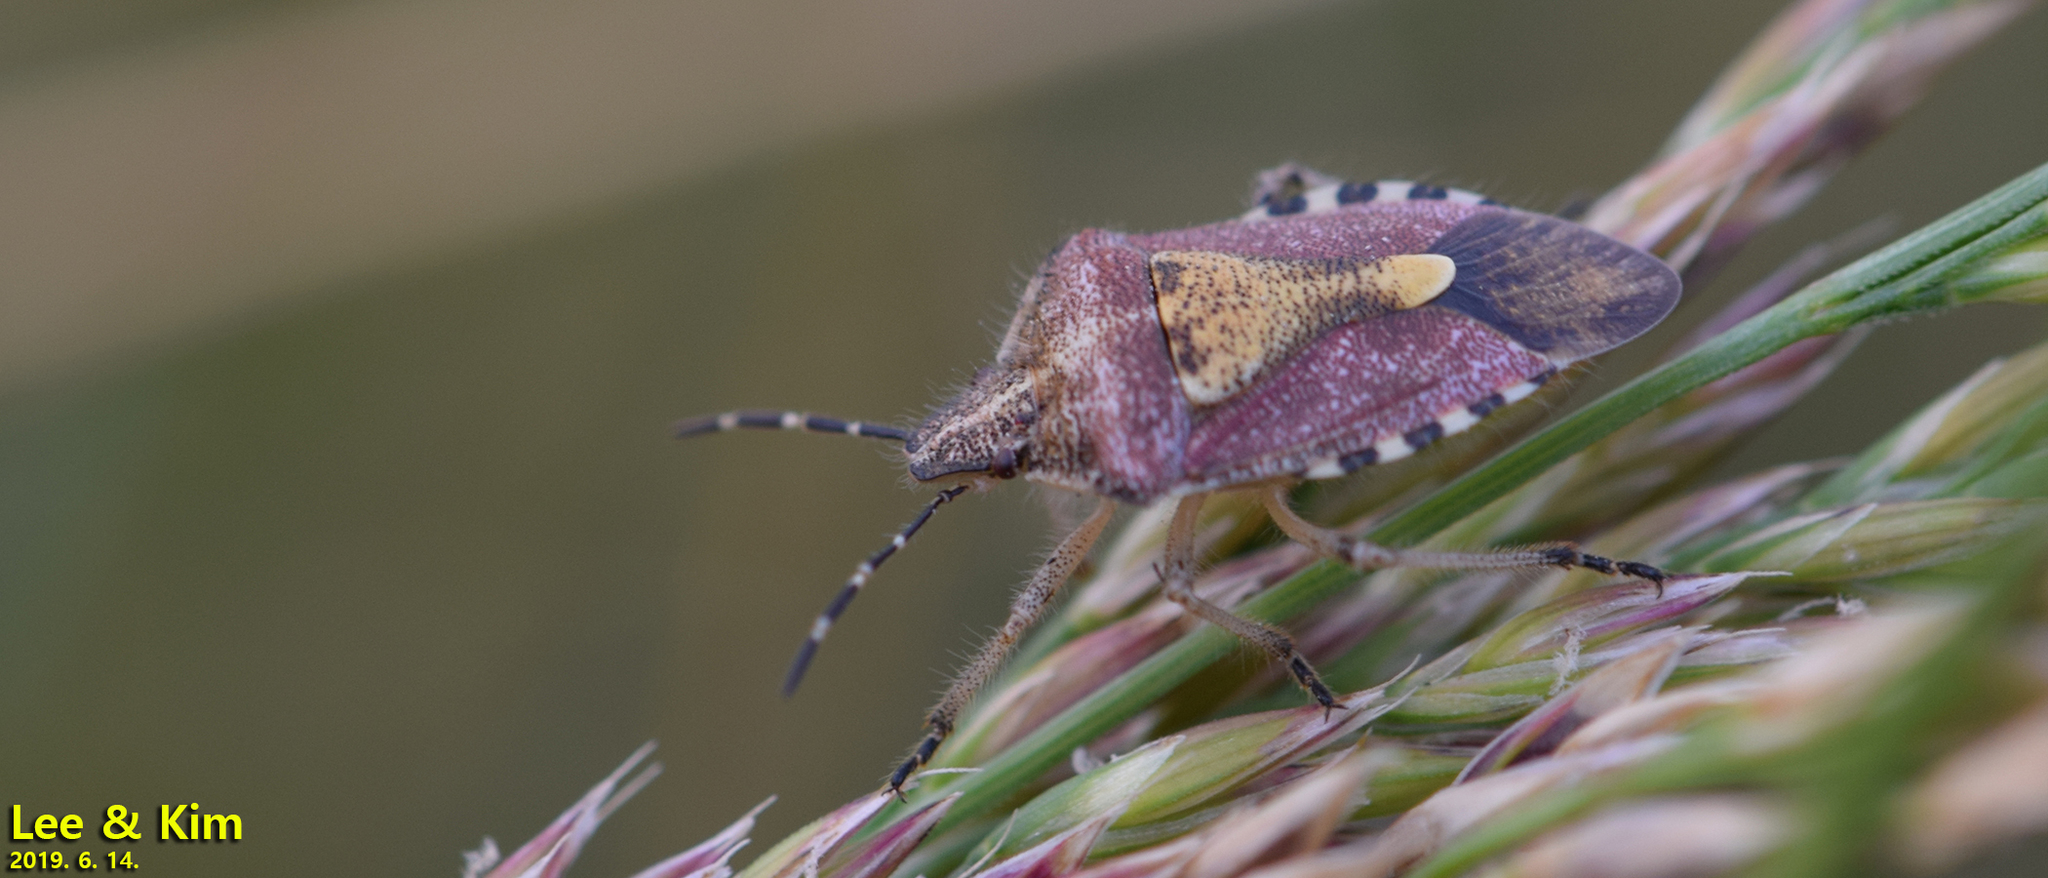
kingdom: Animalia
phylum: Arthropoda
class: Insecta
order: Hemiptera
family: Pentatomidae
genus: Dolycoris
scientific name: Dolycoris baccarum
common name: Sloe bug
